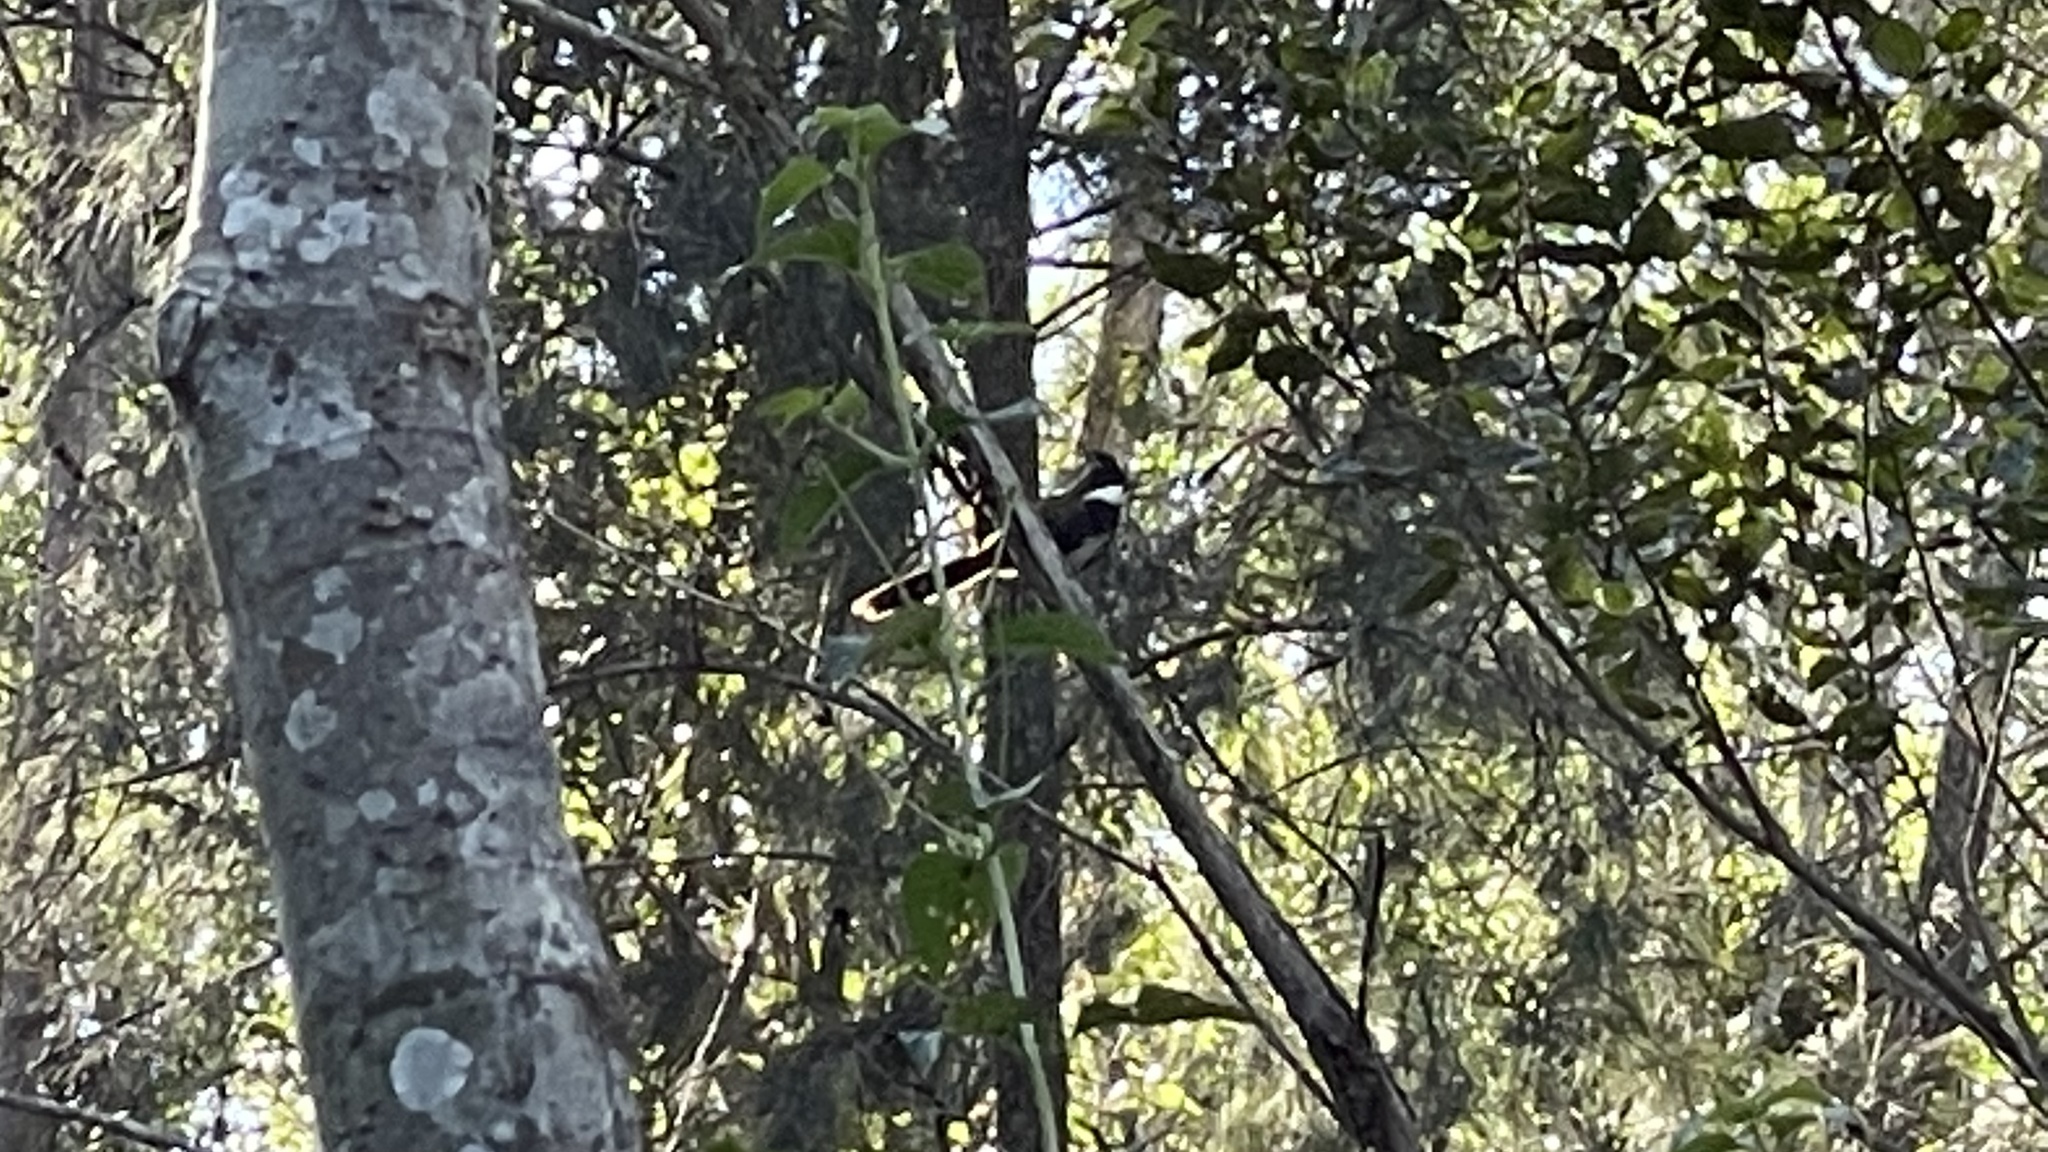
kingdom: Animalia
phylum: Chordata
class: Aves
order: Passeriformes
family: Psophodidae
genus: Psophodes
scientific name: Psophodes olivaceus
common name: Eastern whipbird
